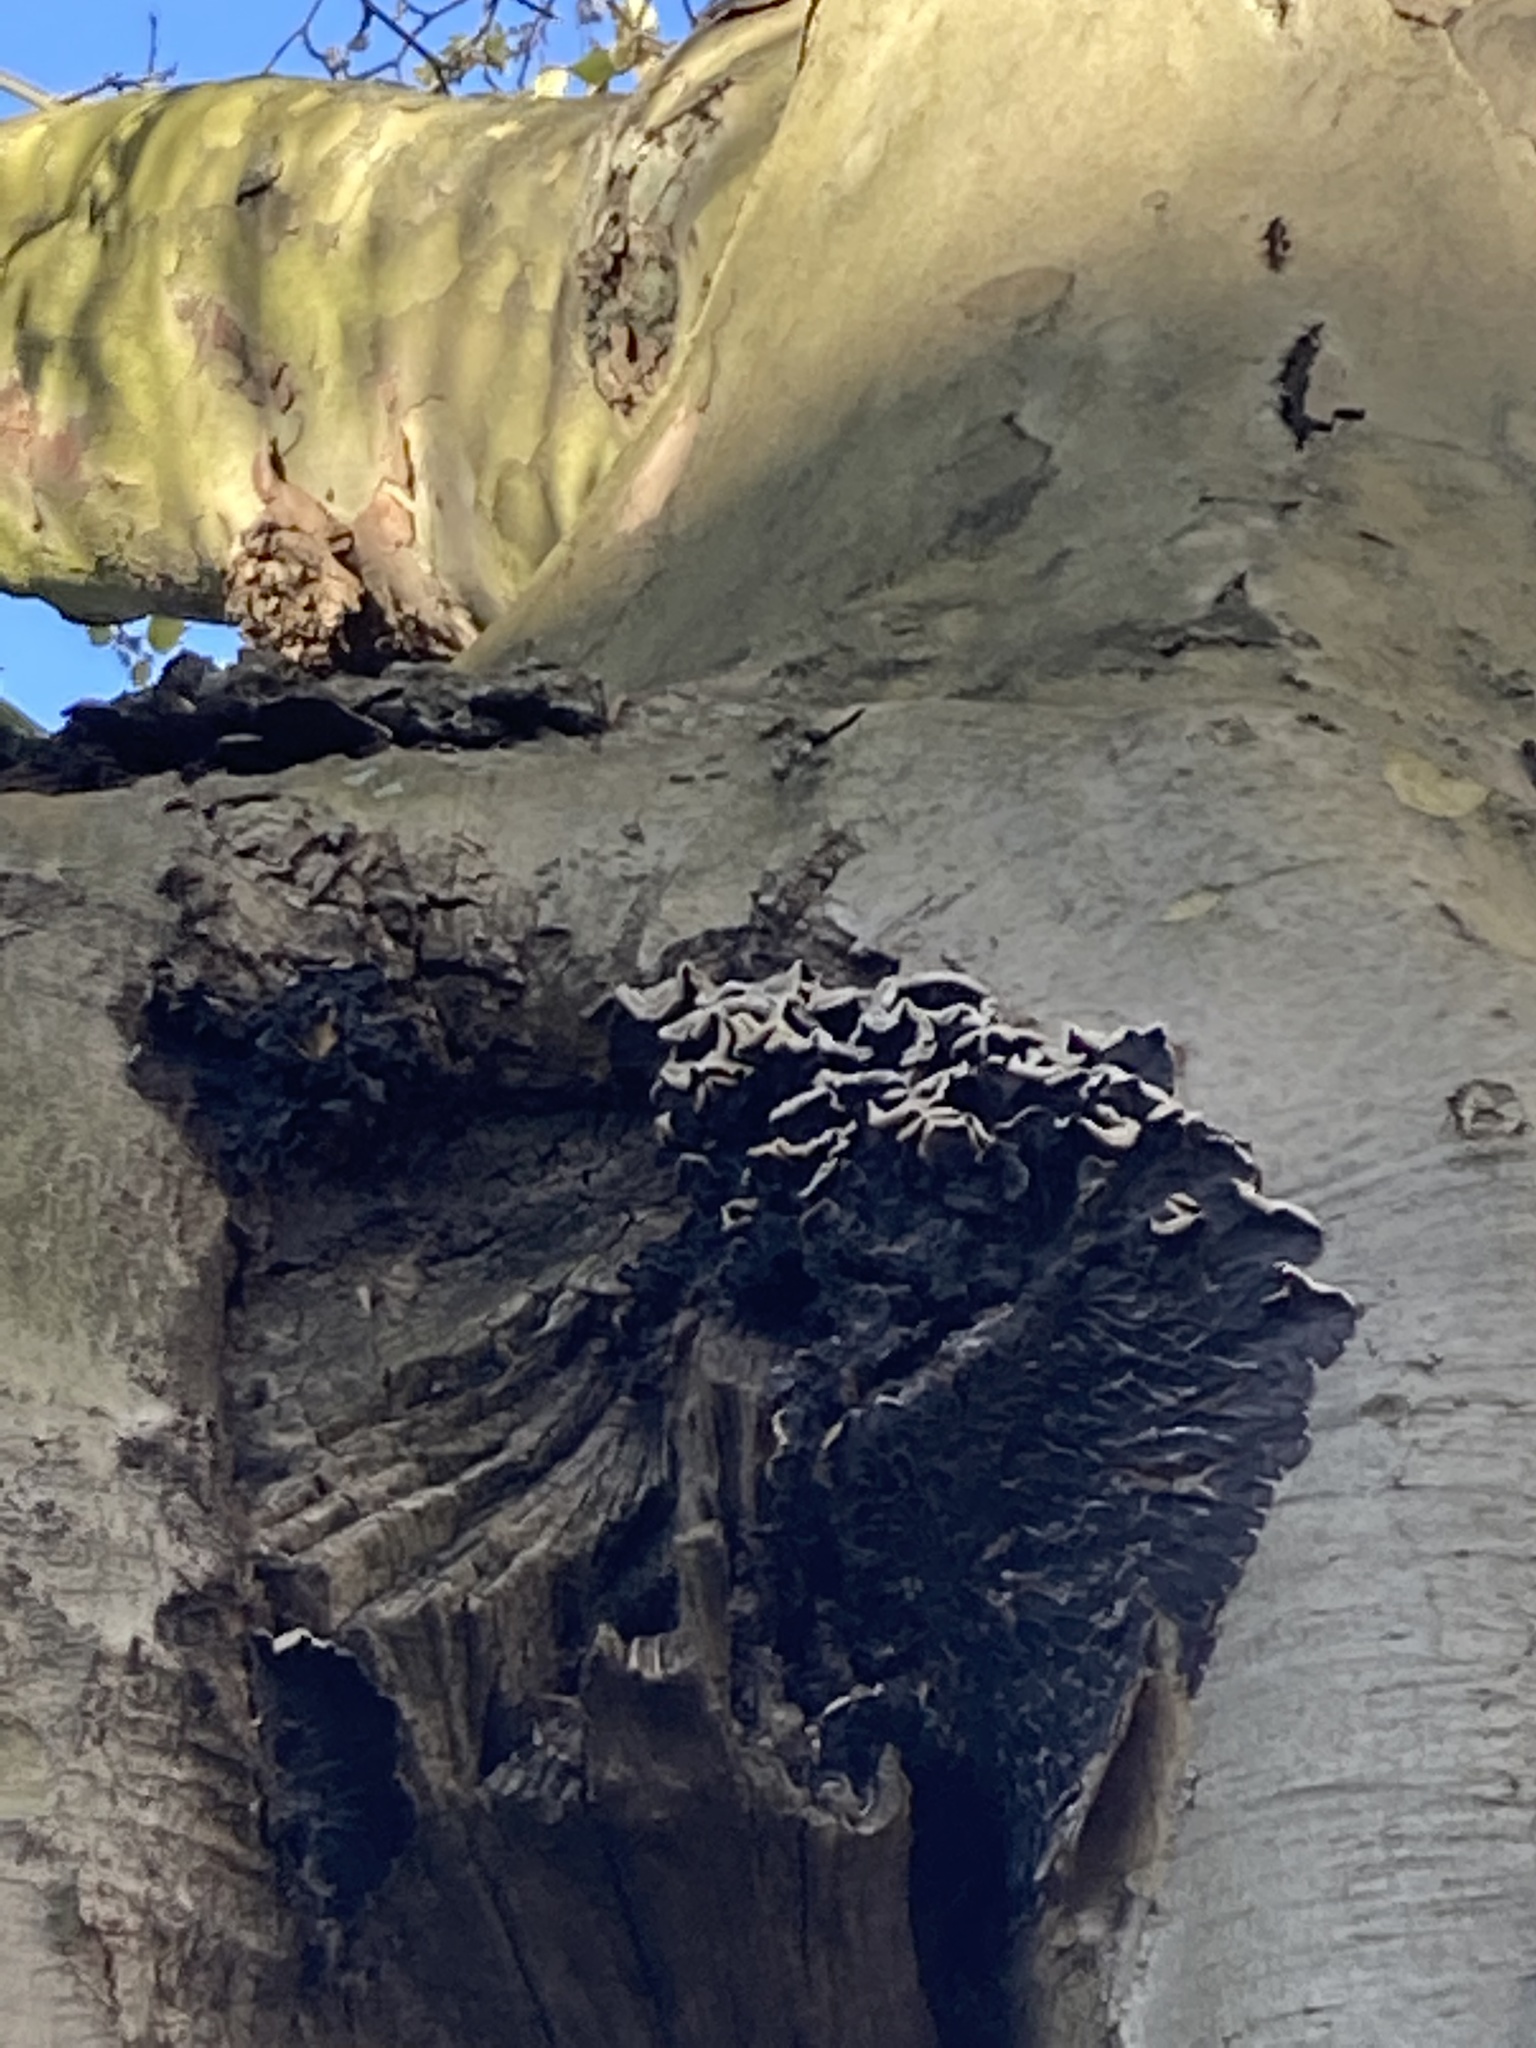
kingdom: Fungi
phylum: Basidiomycota
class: Agaricomycetes
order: Auriculariales
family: Auriculariaceae
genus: Auricularia
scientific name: Auricularia mesenterica
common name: Tripe fungus
